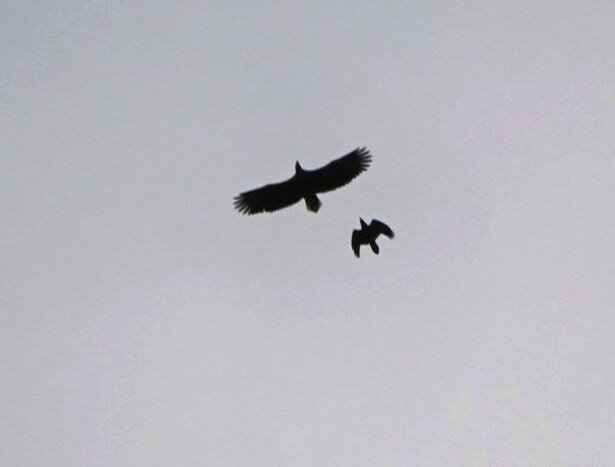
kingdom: Animalia
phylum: Chordata
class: Aves
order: Accipitriformes
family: Accipitridae
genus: Haliaeetus
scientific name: Haliaeetus albicilla
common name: White-tailed eagle
